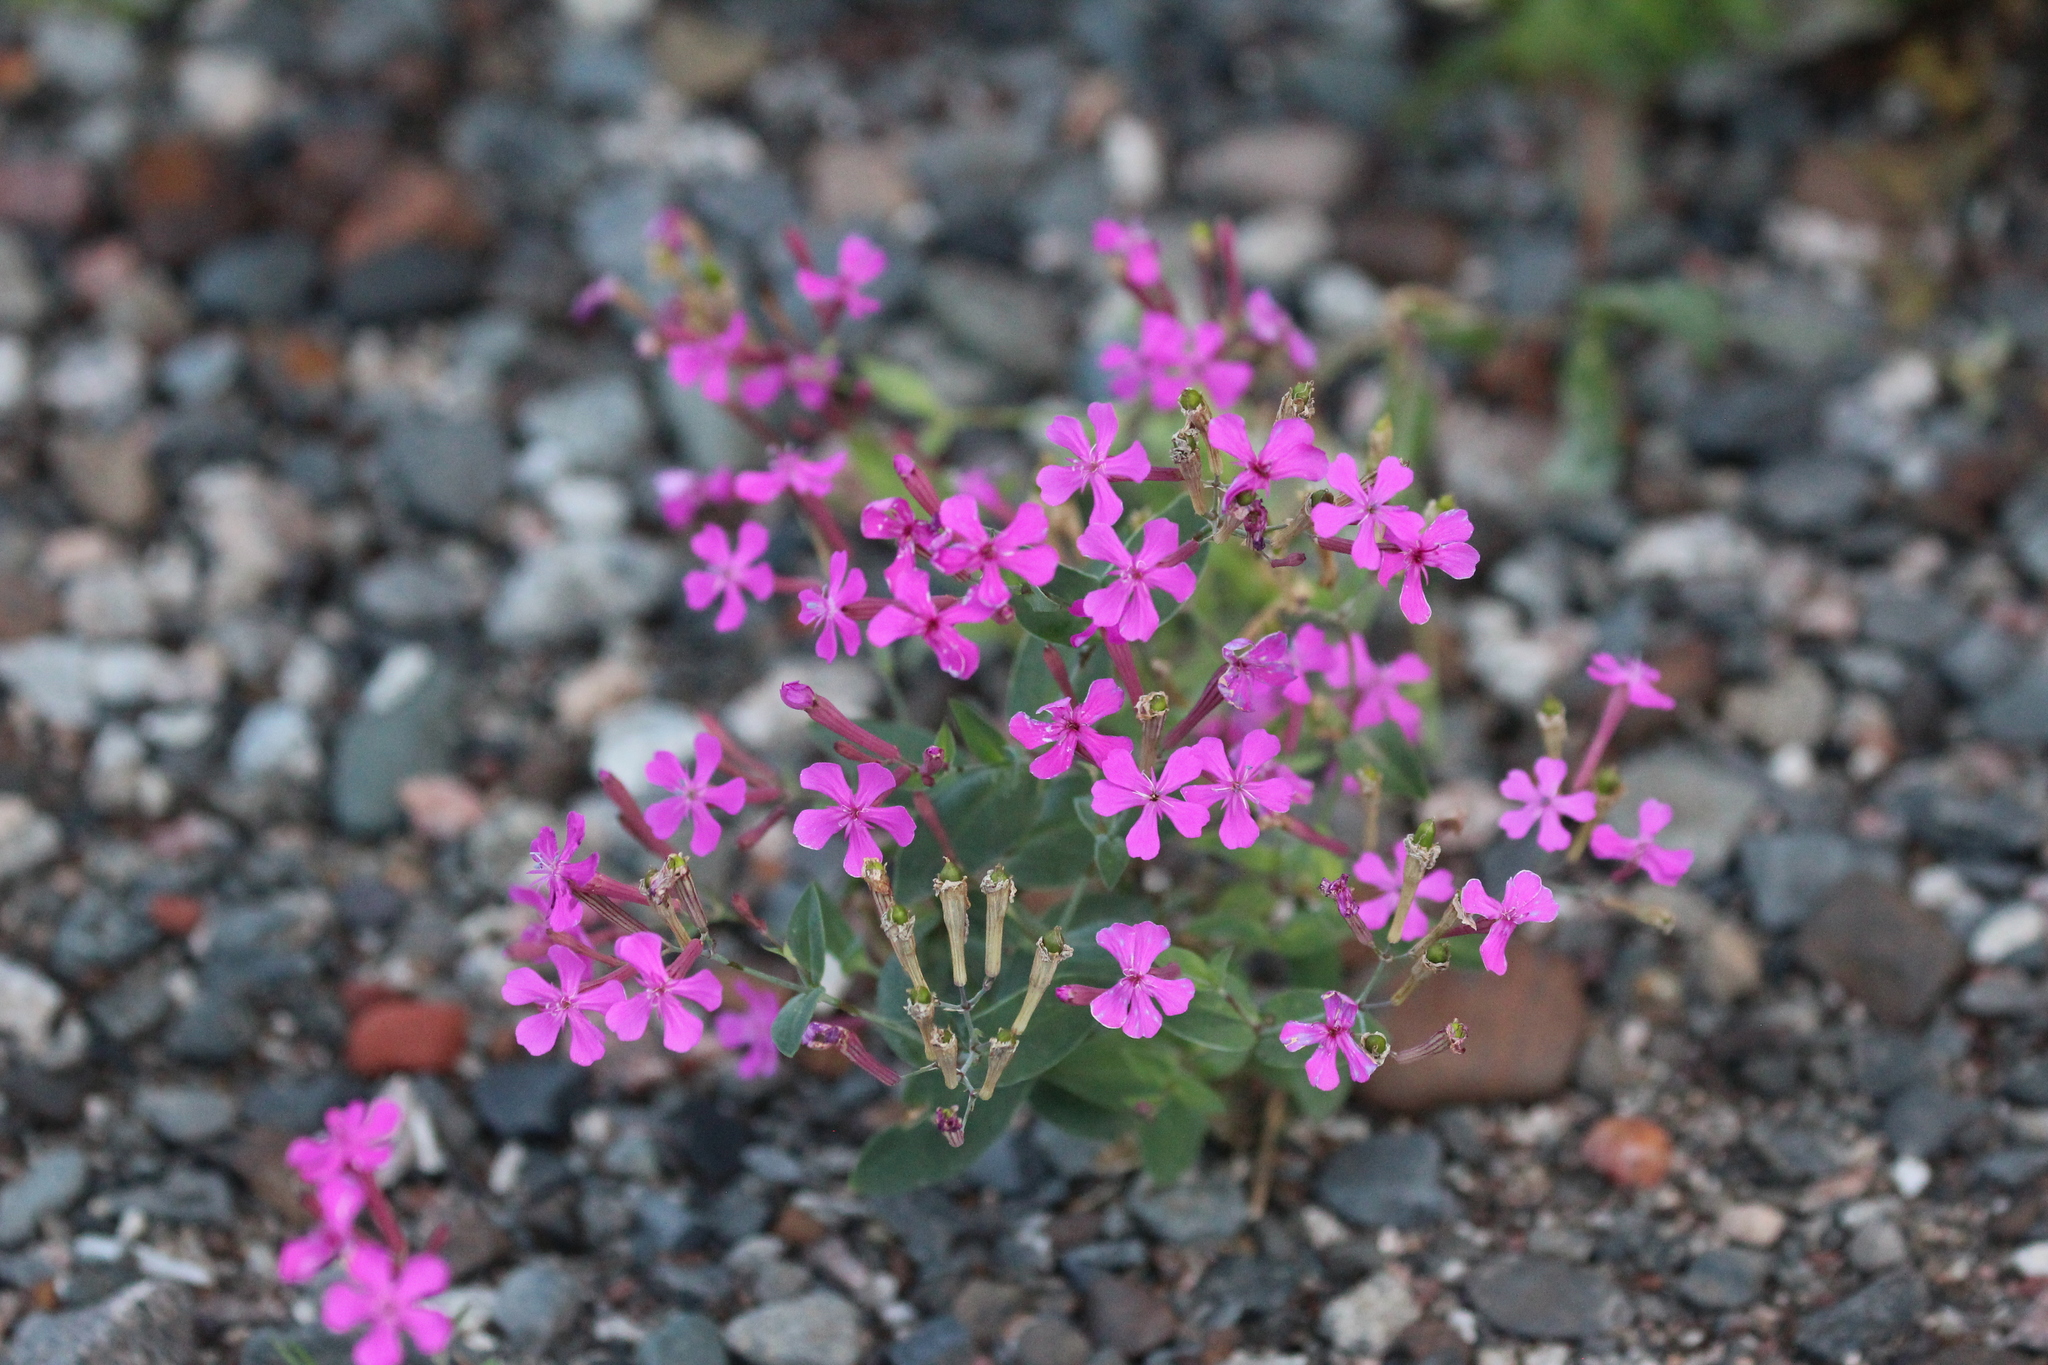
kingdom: Plantae
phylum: Tracheophyta
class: Magnoliopsida
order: Caryophyllales
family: Caryophyllaceae
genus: Atocion
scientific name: Atocion armeria
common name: Sweet william catchfly
